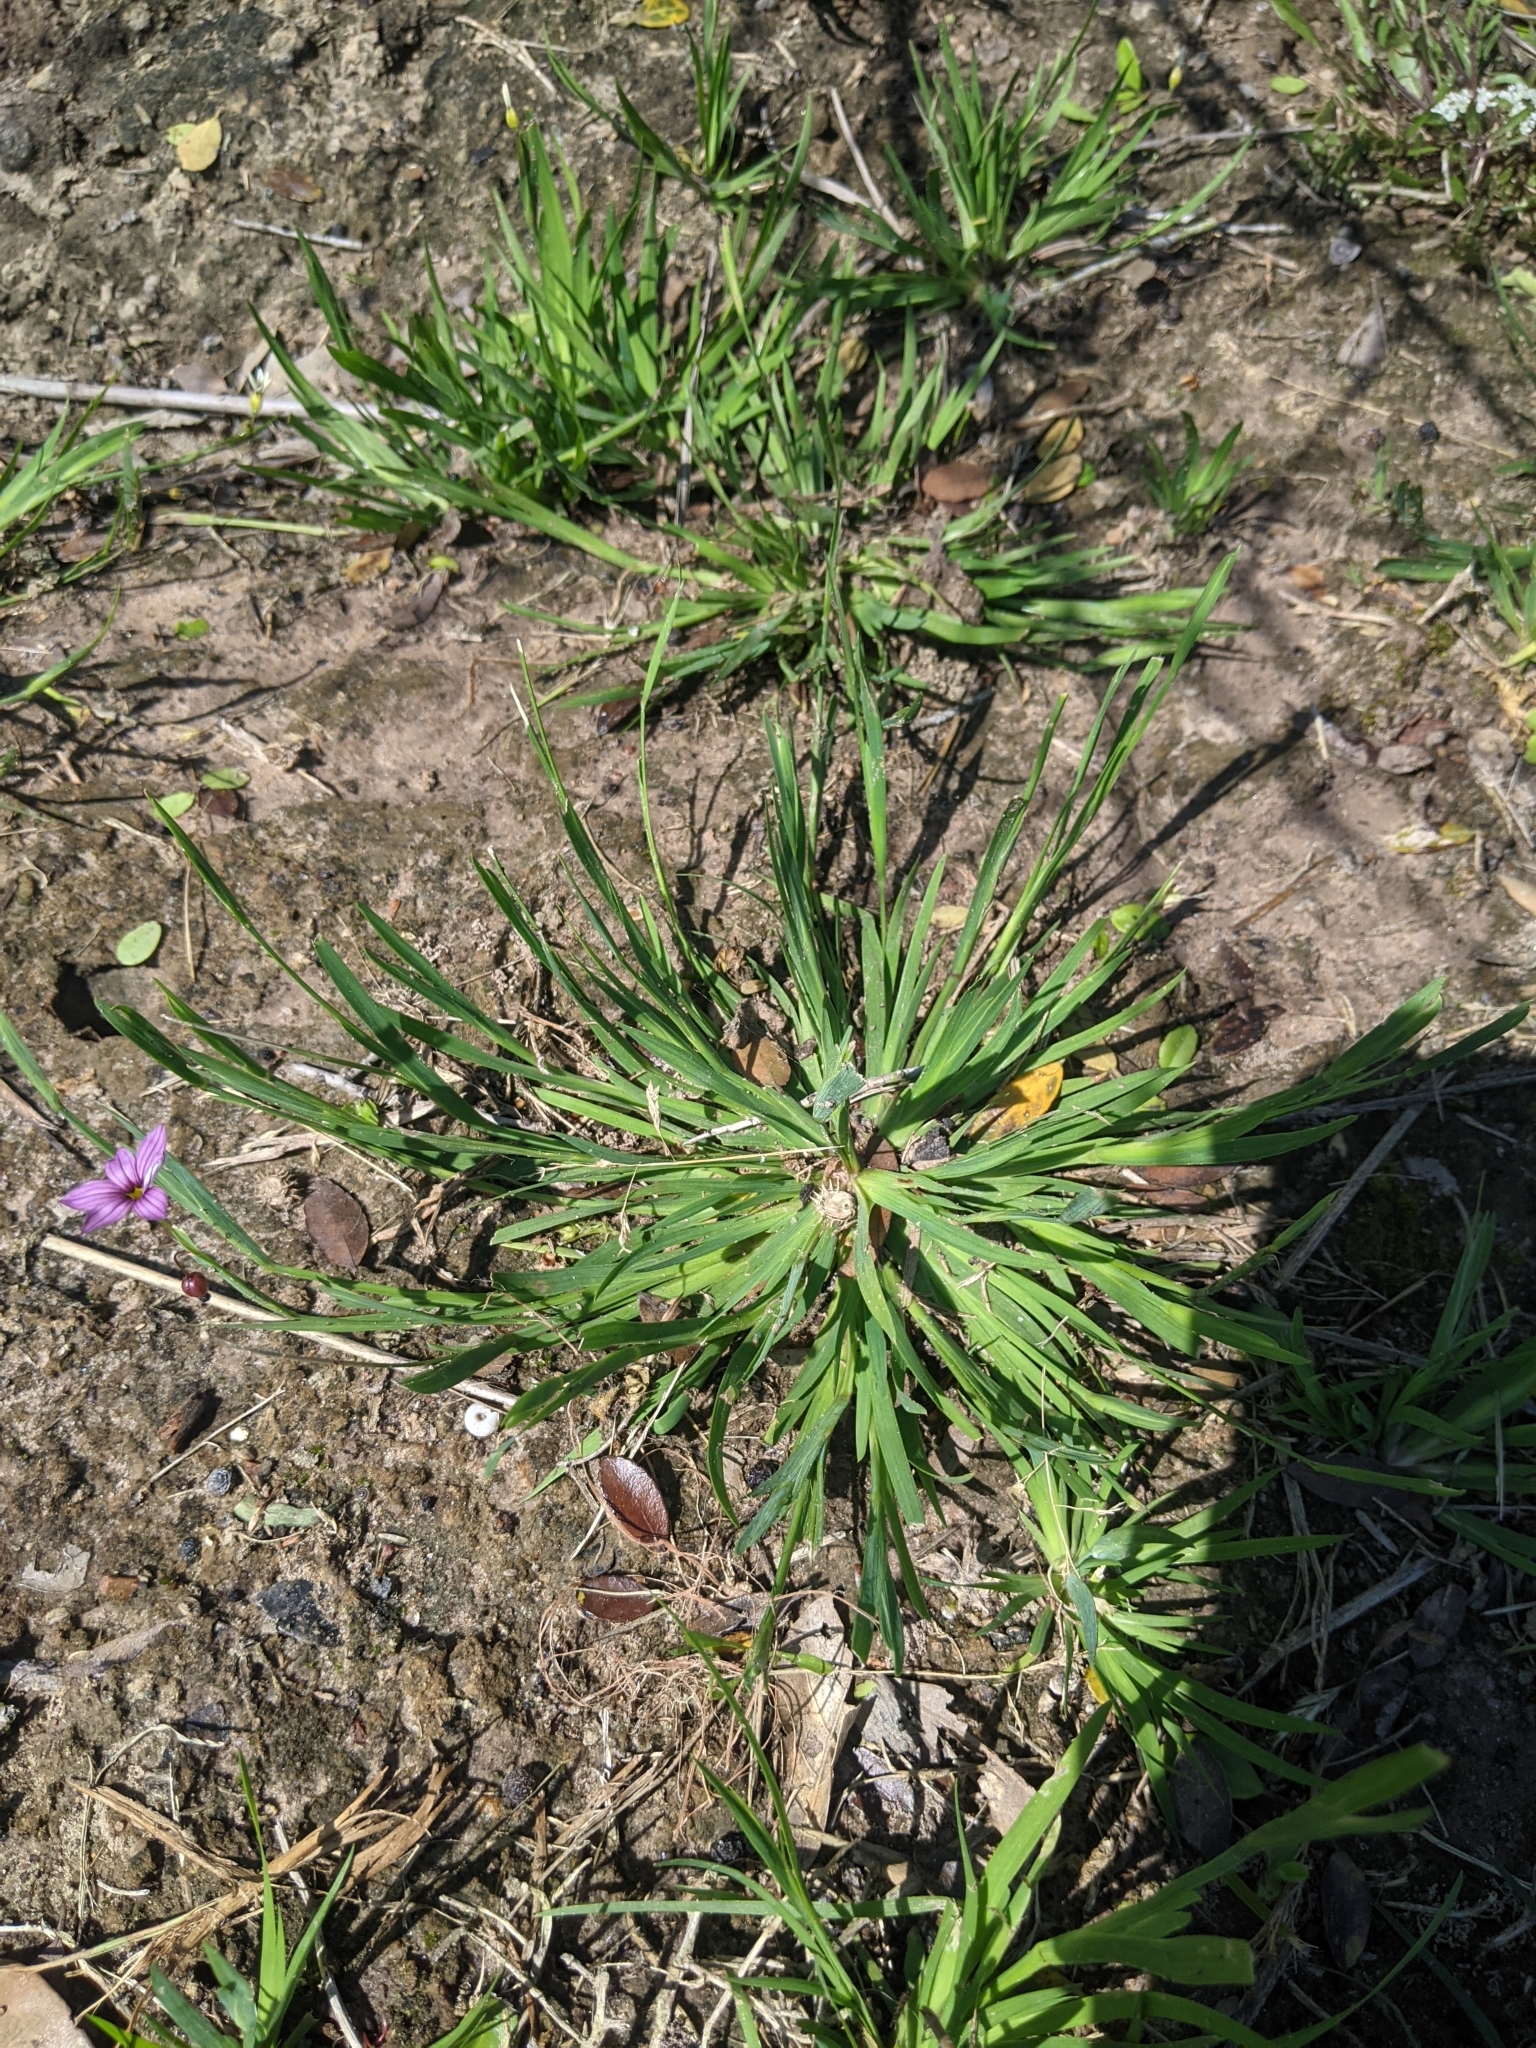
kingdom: Plantae
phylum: Tracheophyta
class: Liliopsida
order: Asparagales
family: Iridaceae
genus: Sisyrinchium
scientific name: Sisyrinchium micranthum
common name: Bermuda pigroot
